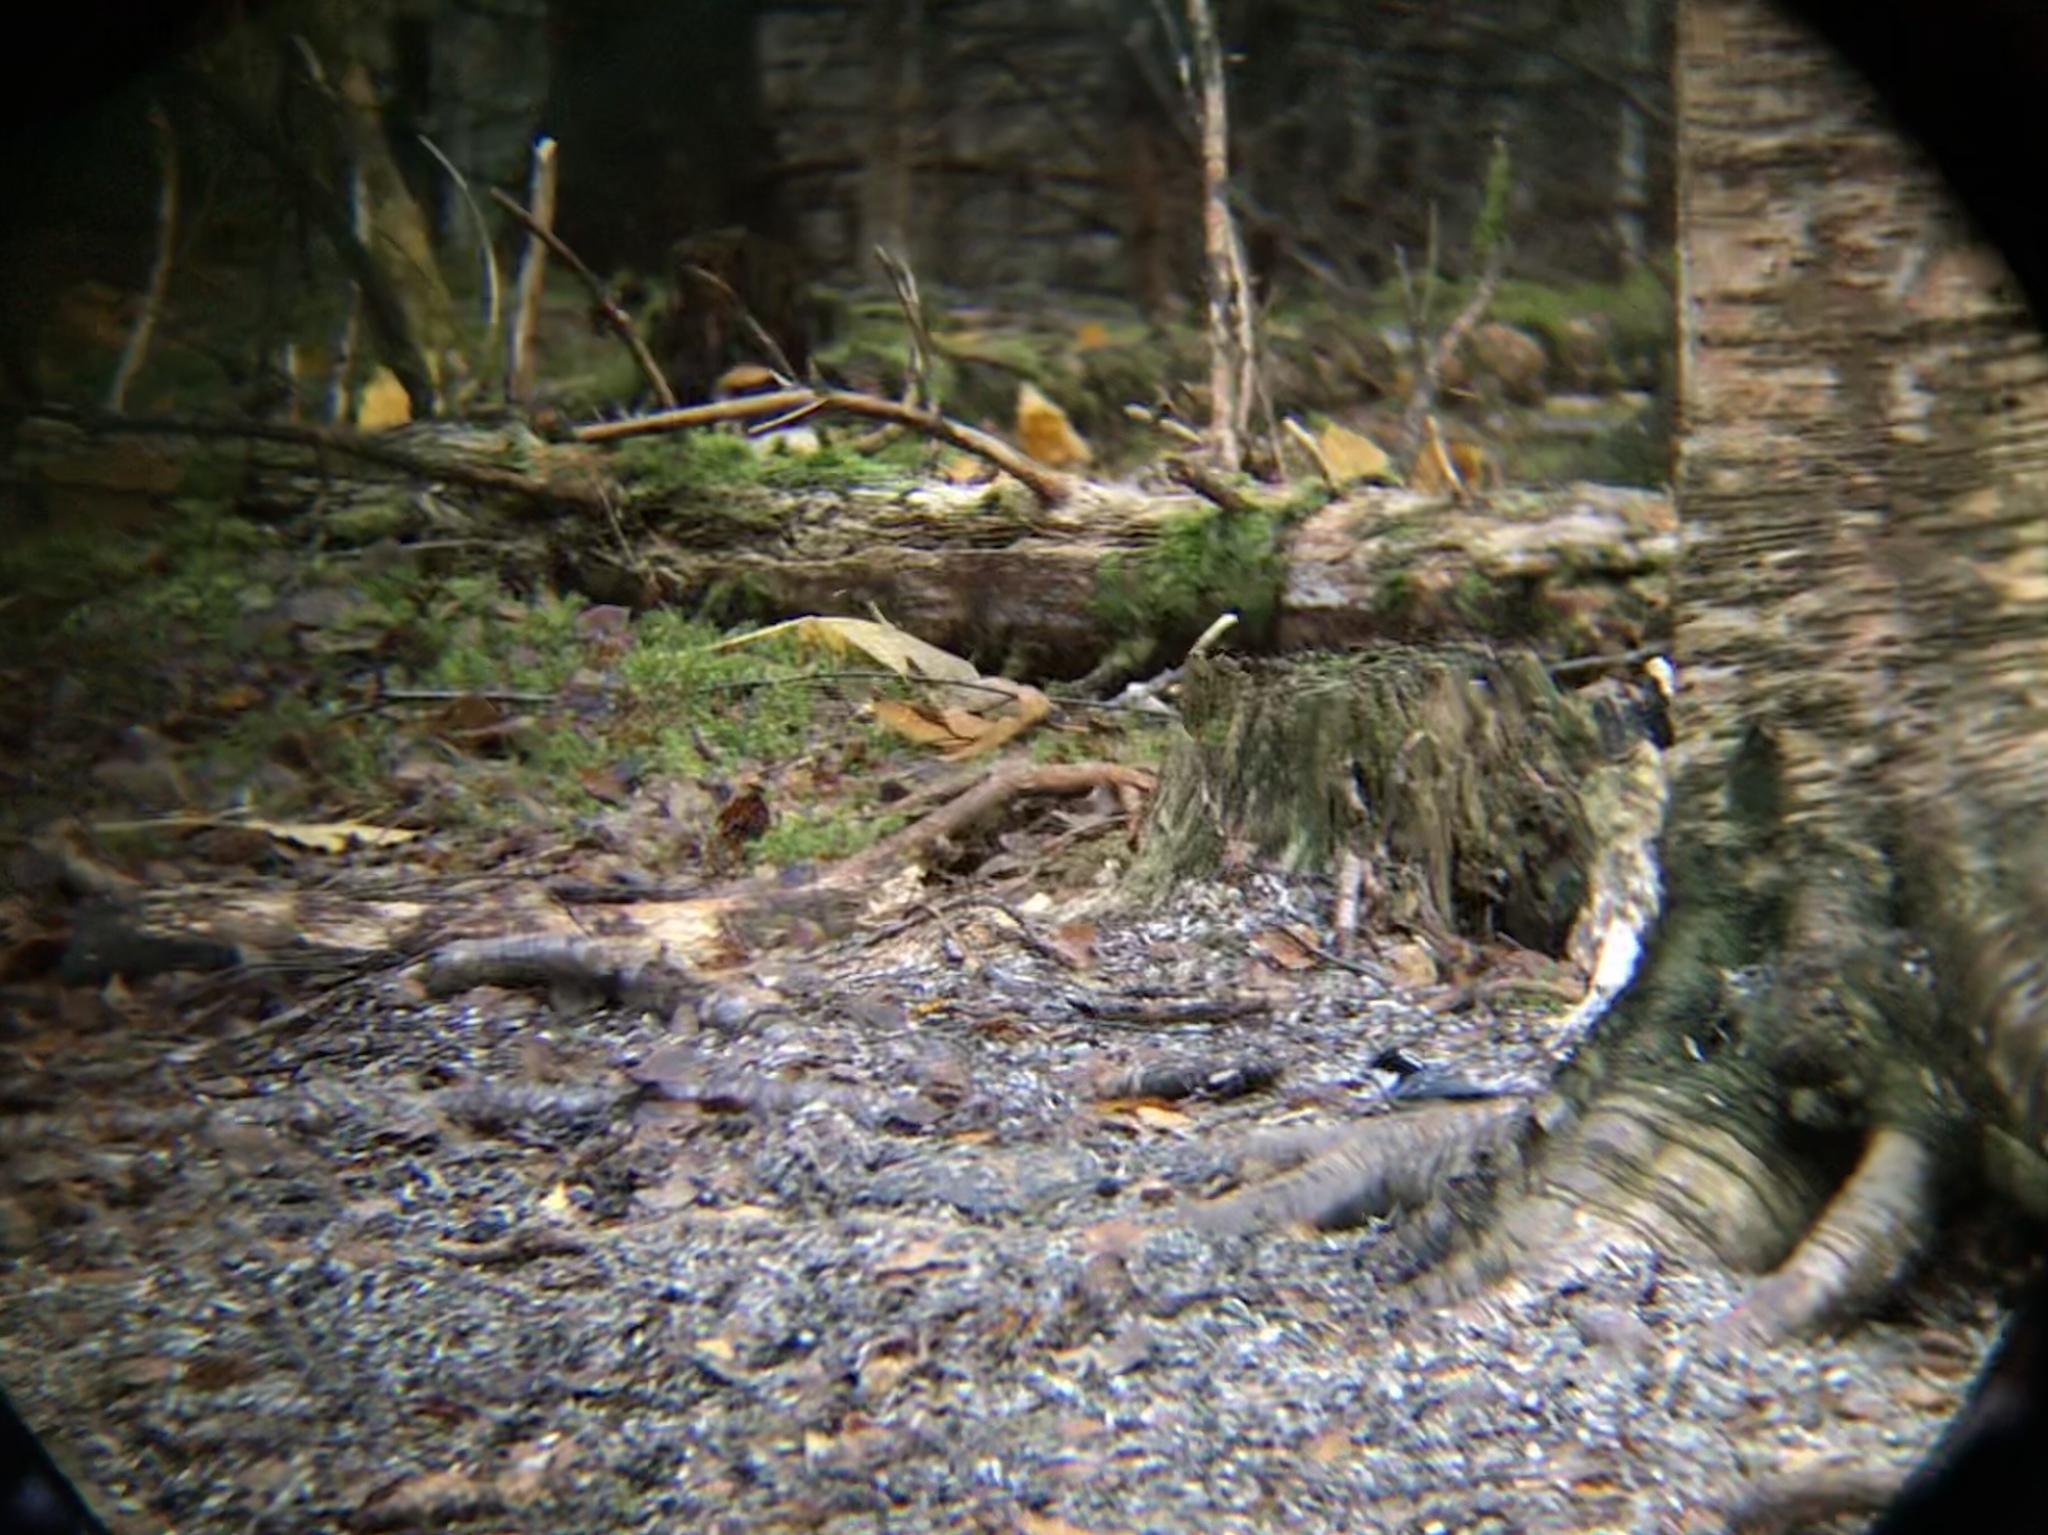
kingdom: Animalia
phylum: Chordata
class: Aves
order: Passeriformes
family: Paridae
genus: Periparus
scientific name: Periparus ater
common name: Coal tit
